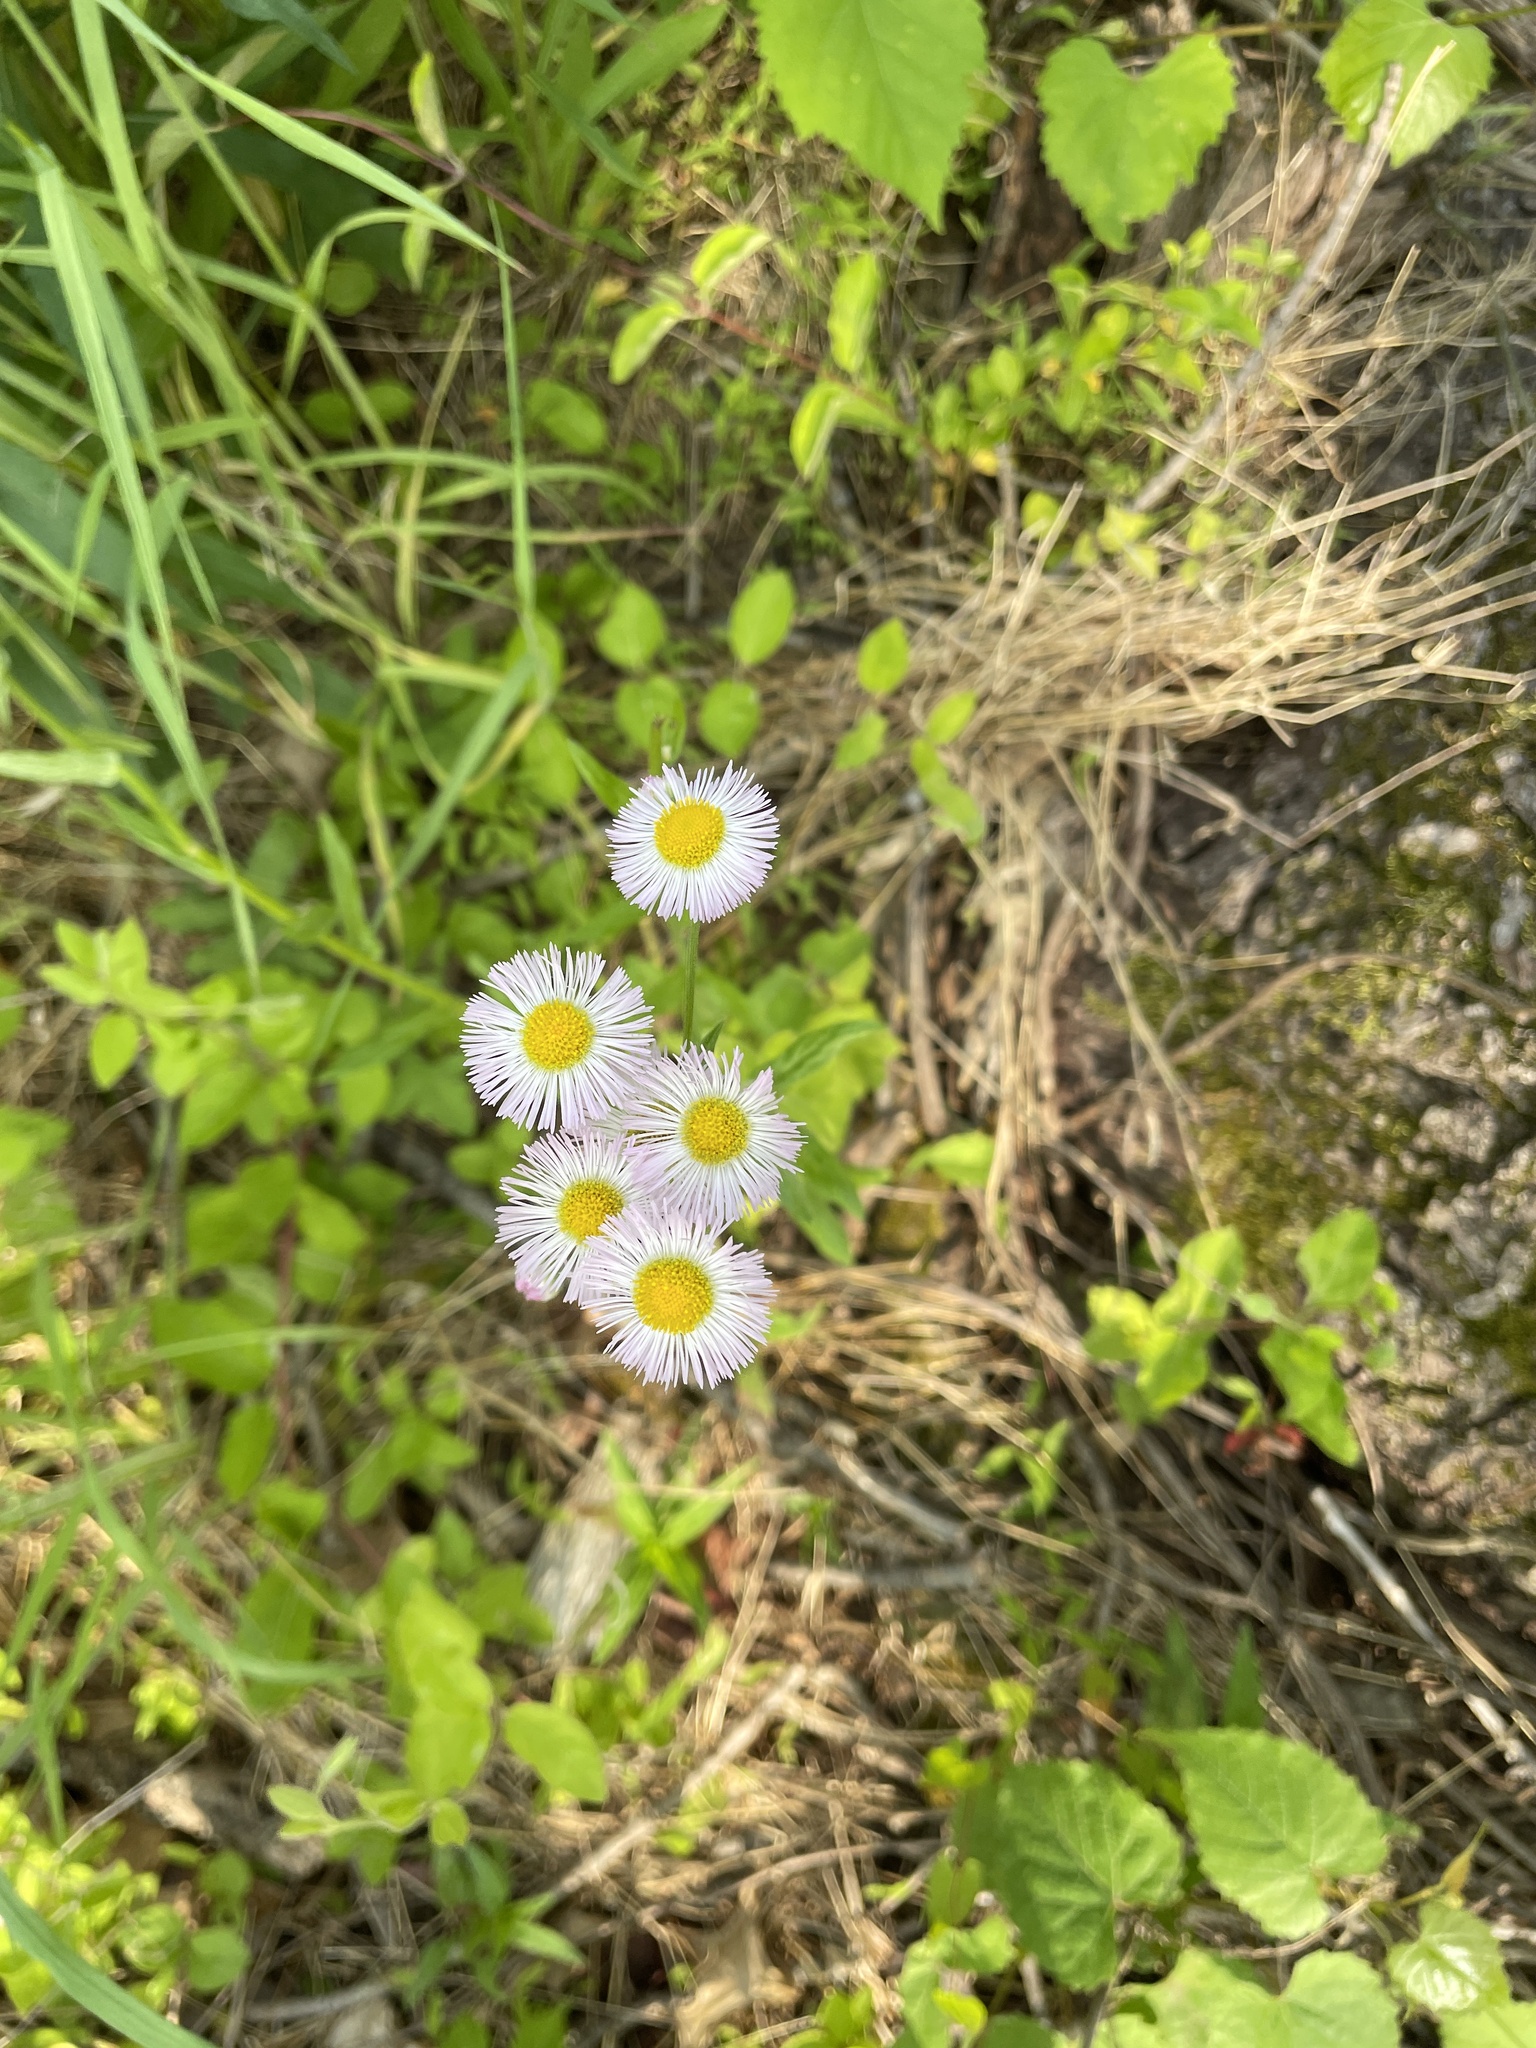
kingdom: Plantae
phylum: Tracheophyta
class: Magnoliopsida
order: Asterales
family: Asteraceae
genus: Erigeron
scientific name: Erigeron philadelphicus
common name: Robin's-plantain
